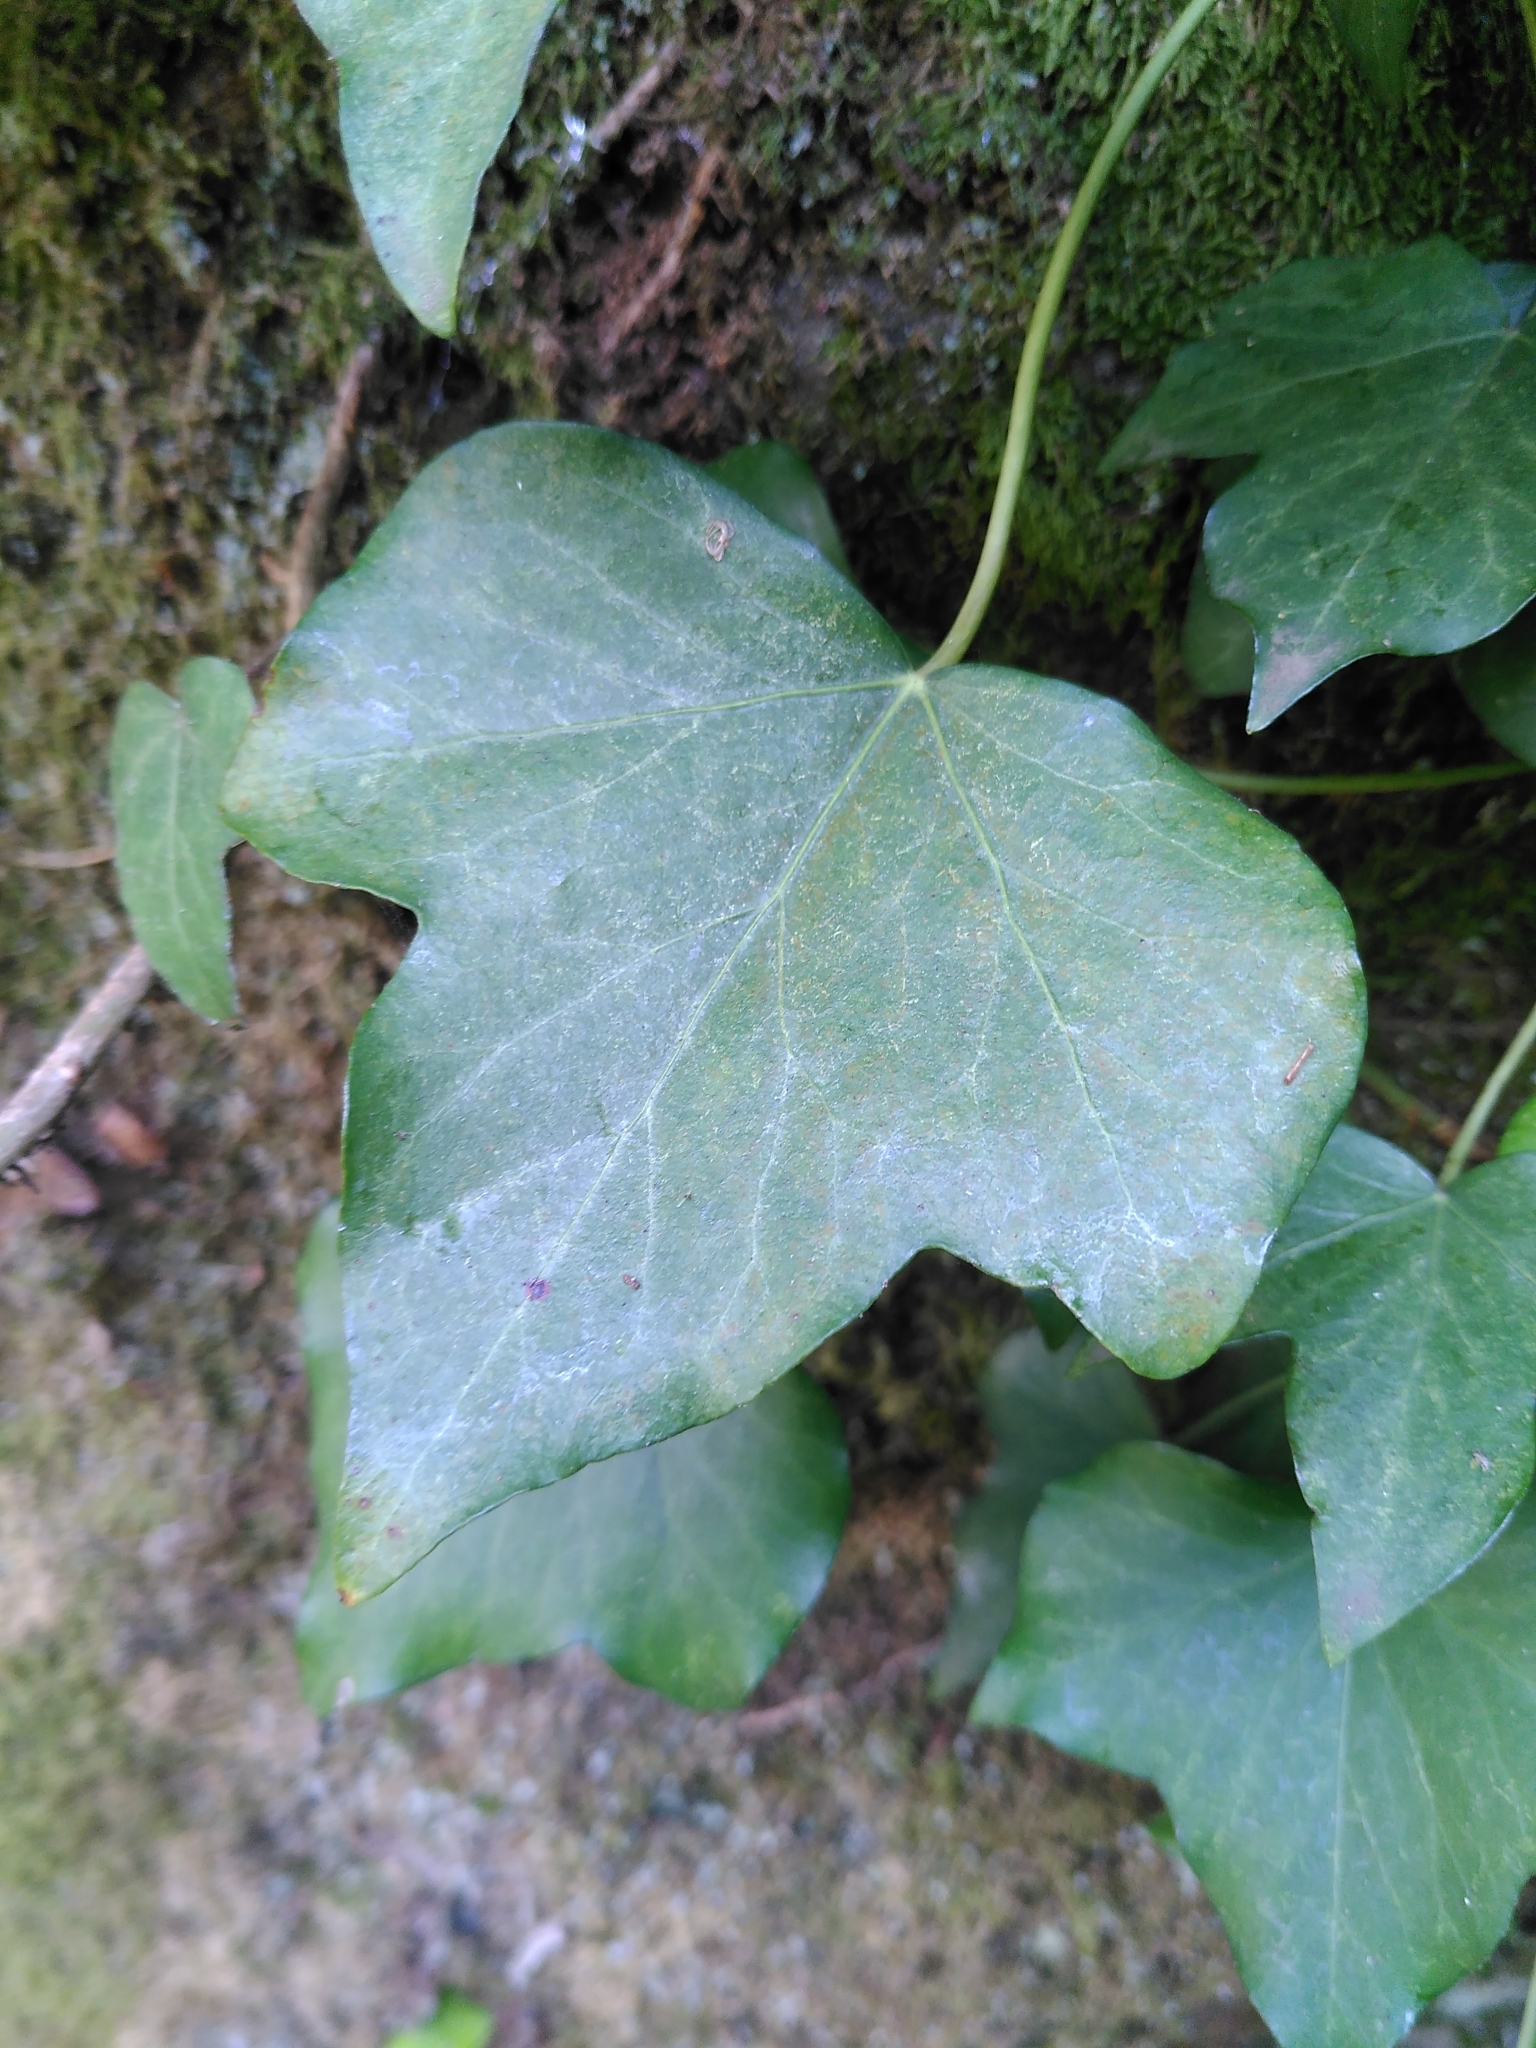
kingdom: Plantae
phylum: Tracheophyta
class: Magnoliopsida
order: Apiales
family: Araliaceae
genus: Hedera
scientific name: Hedera helix
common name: Ivy
